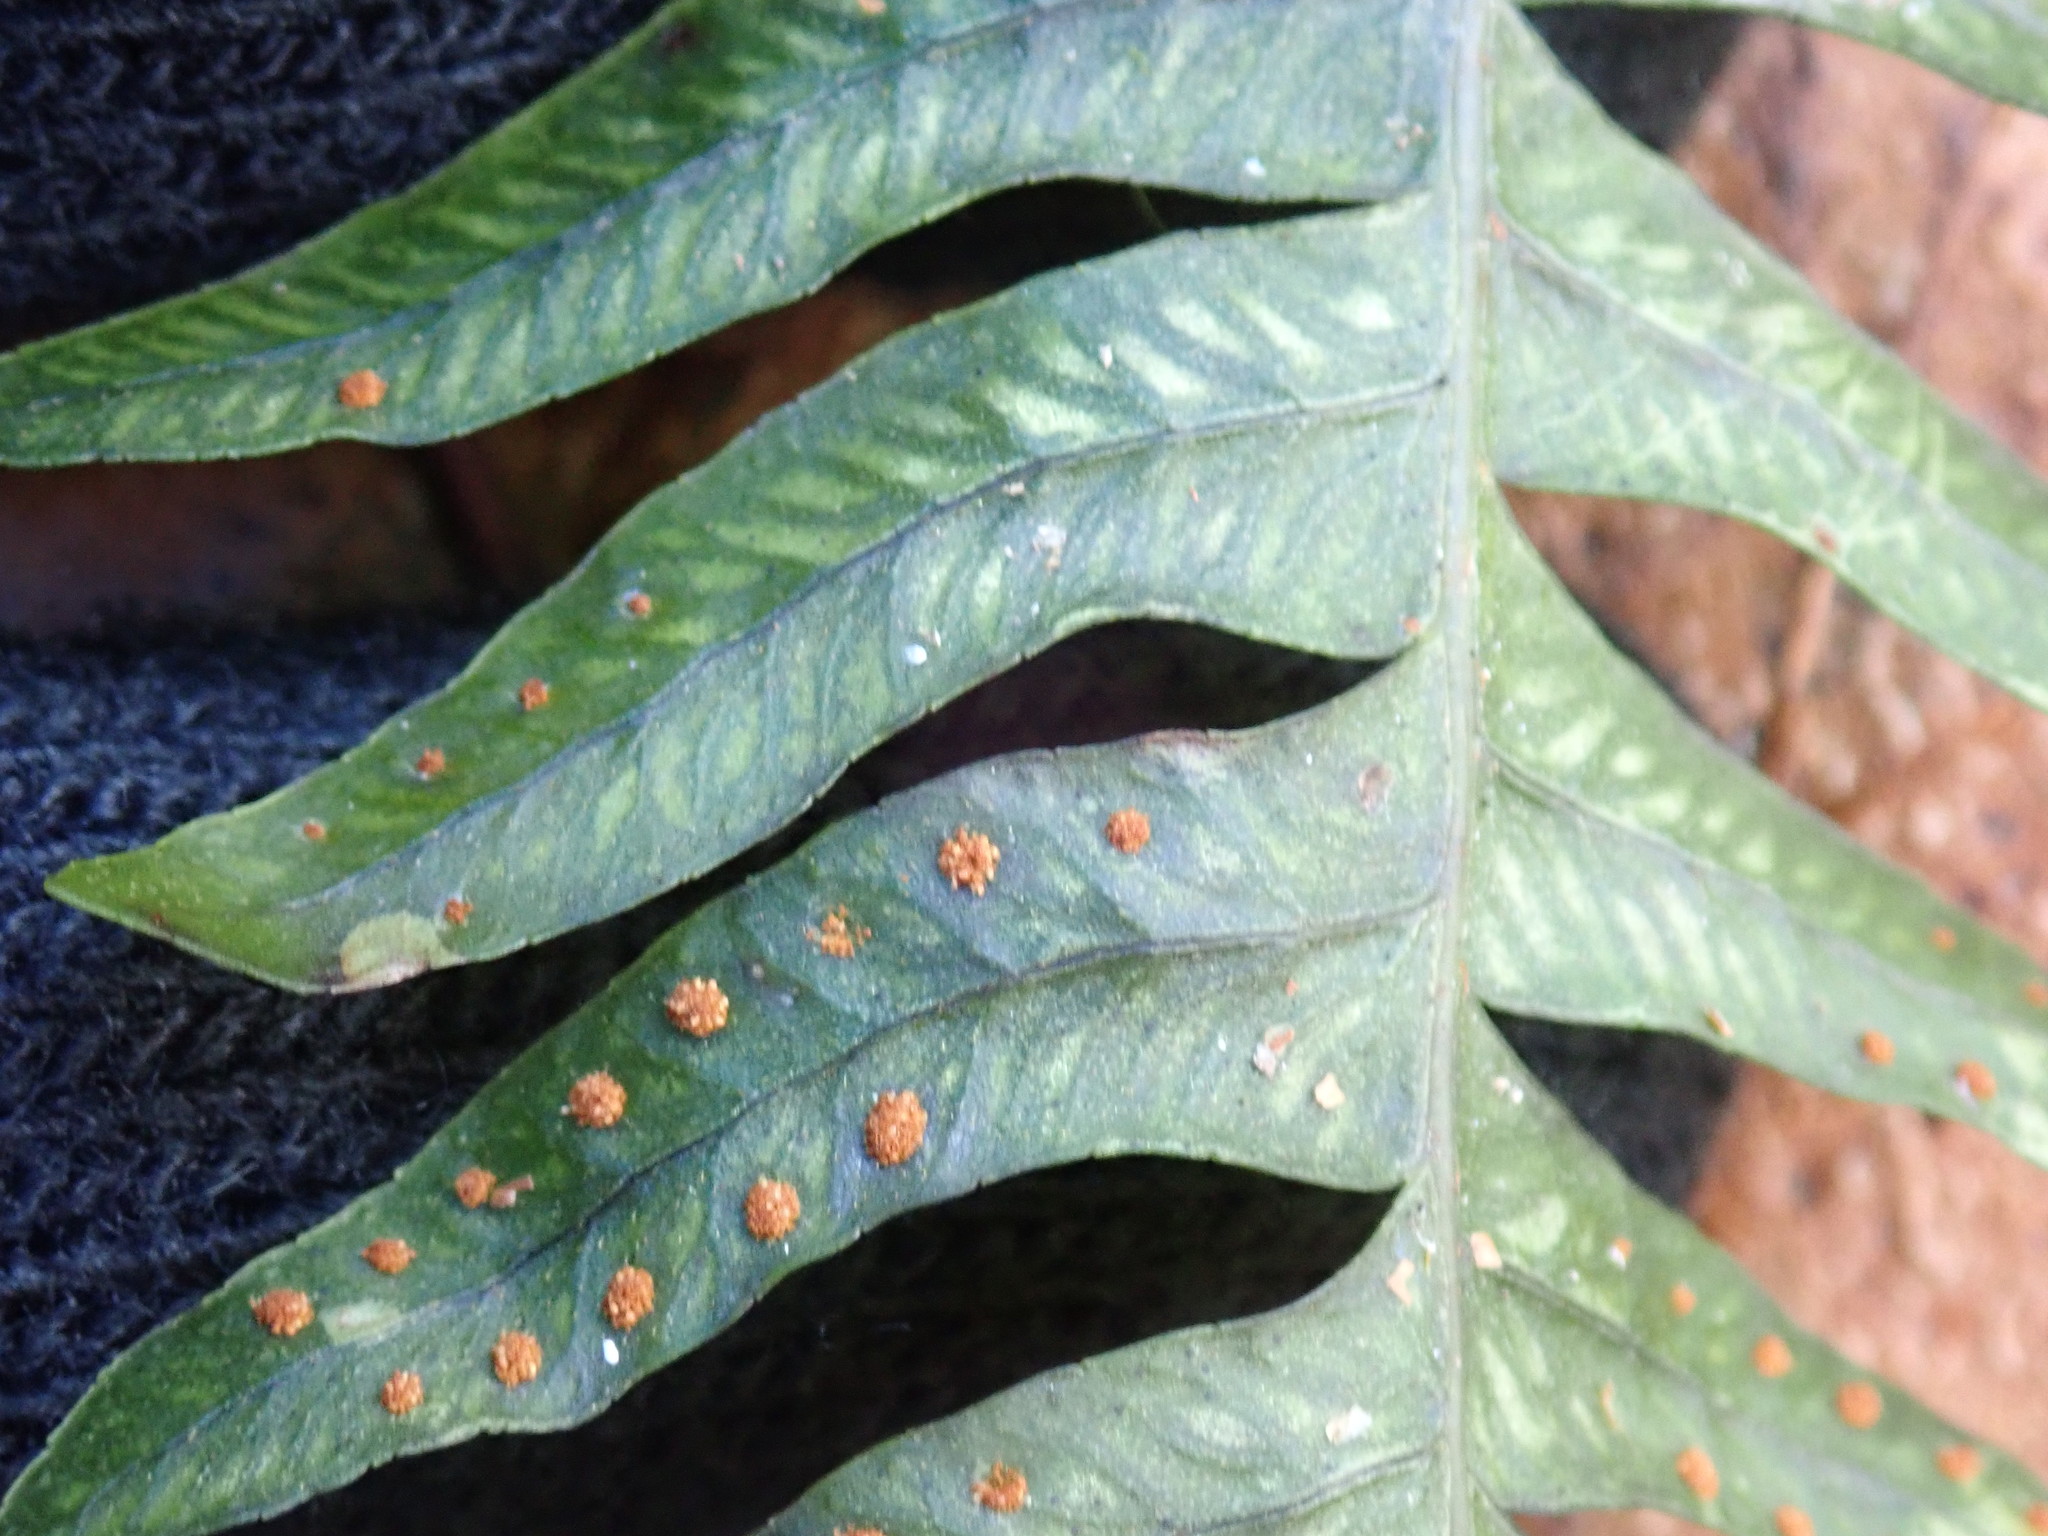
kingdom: Plantae
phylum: Tracheophyta
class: Polypodiopsida
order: Polypodiales
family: Polypodiaceae
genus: Polypodium
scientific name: Polypodium
